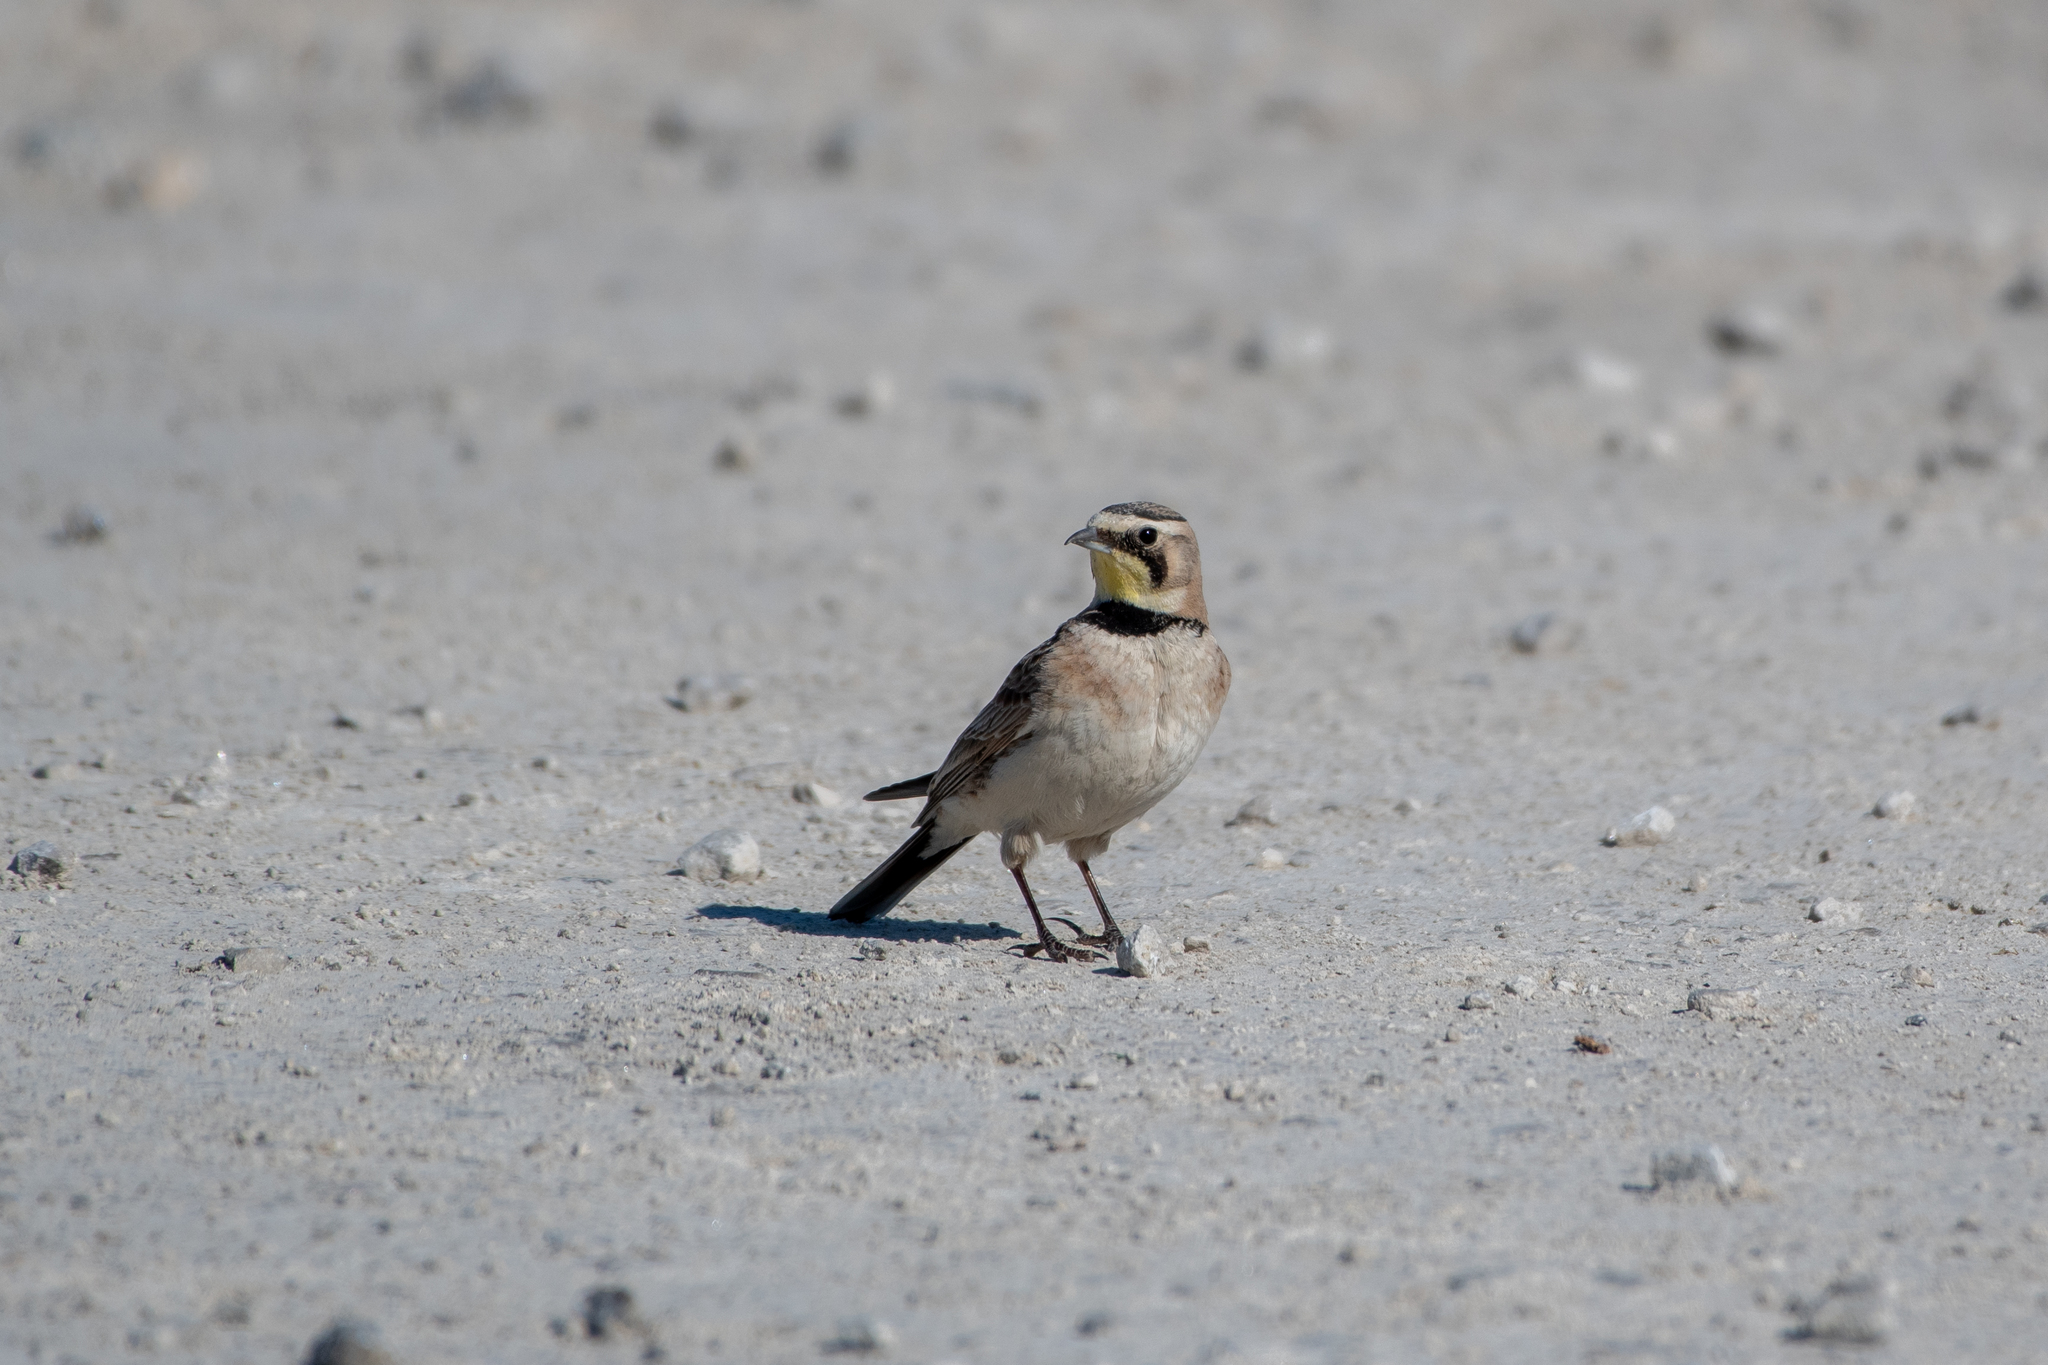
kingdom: Animalia
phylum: Chordata
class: Aves
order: Passeriformes
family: Alaudidae
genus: Eremophila
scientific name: Eremophila alpestris
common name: Horned lark
